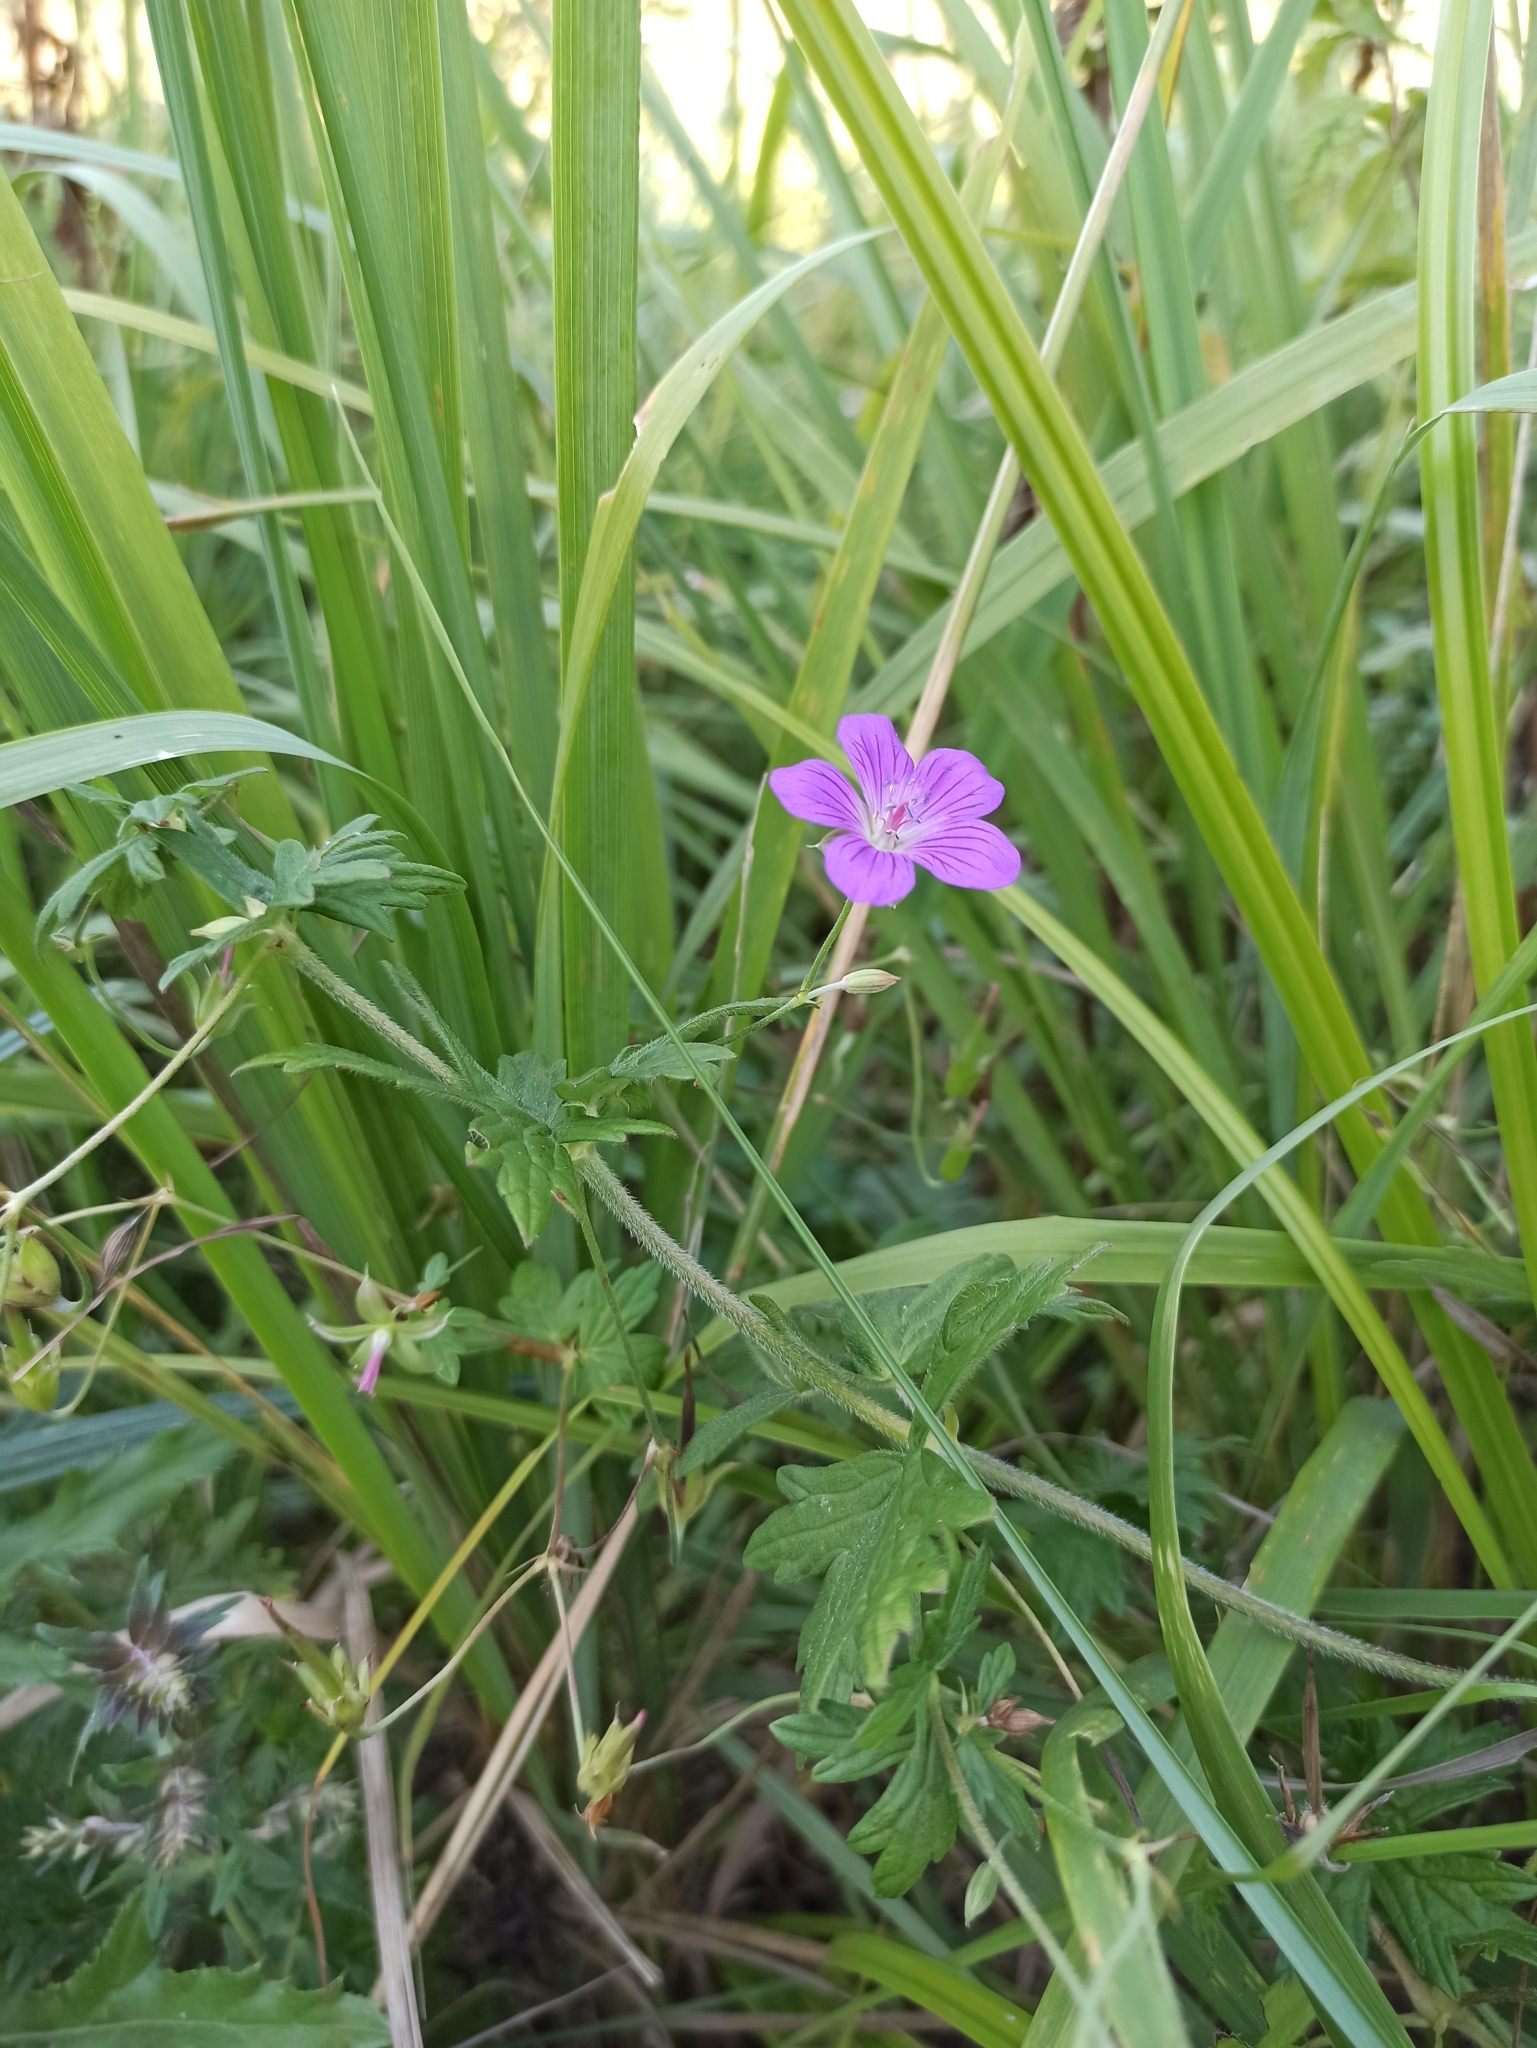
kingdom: Plantae
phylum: Tracheophyta
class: Magnoliopsida
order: Geraniales
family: Geraniaceae
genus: Geranium
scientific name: Geranium palustre
